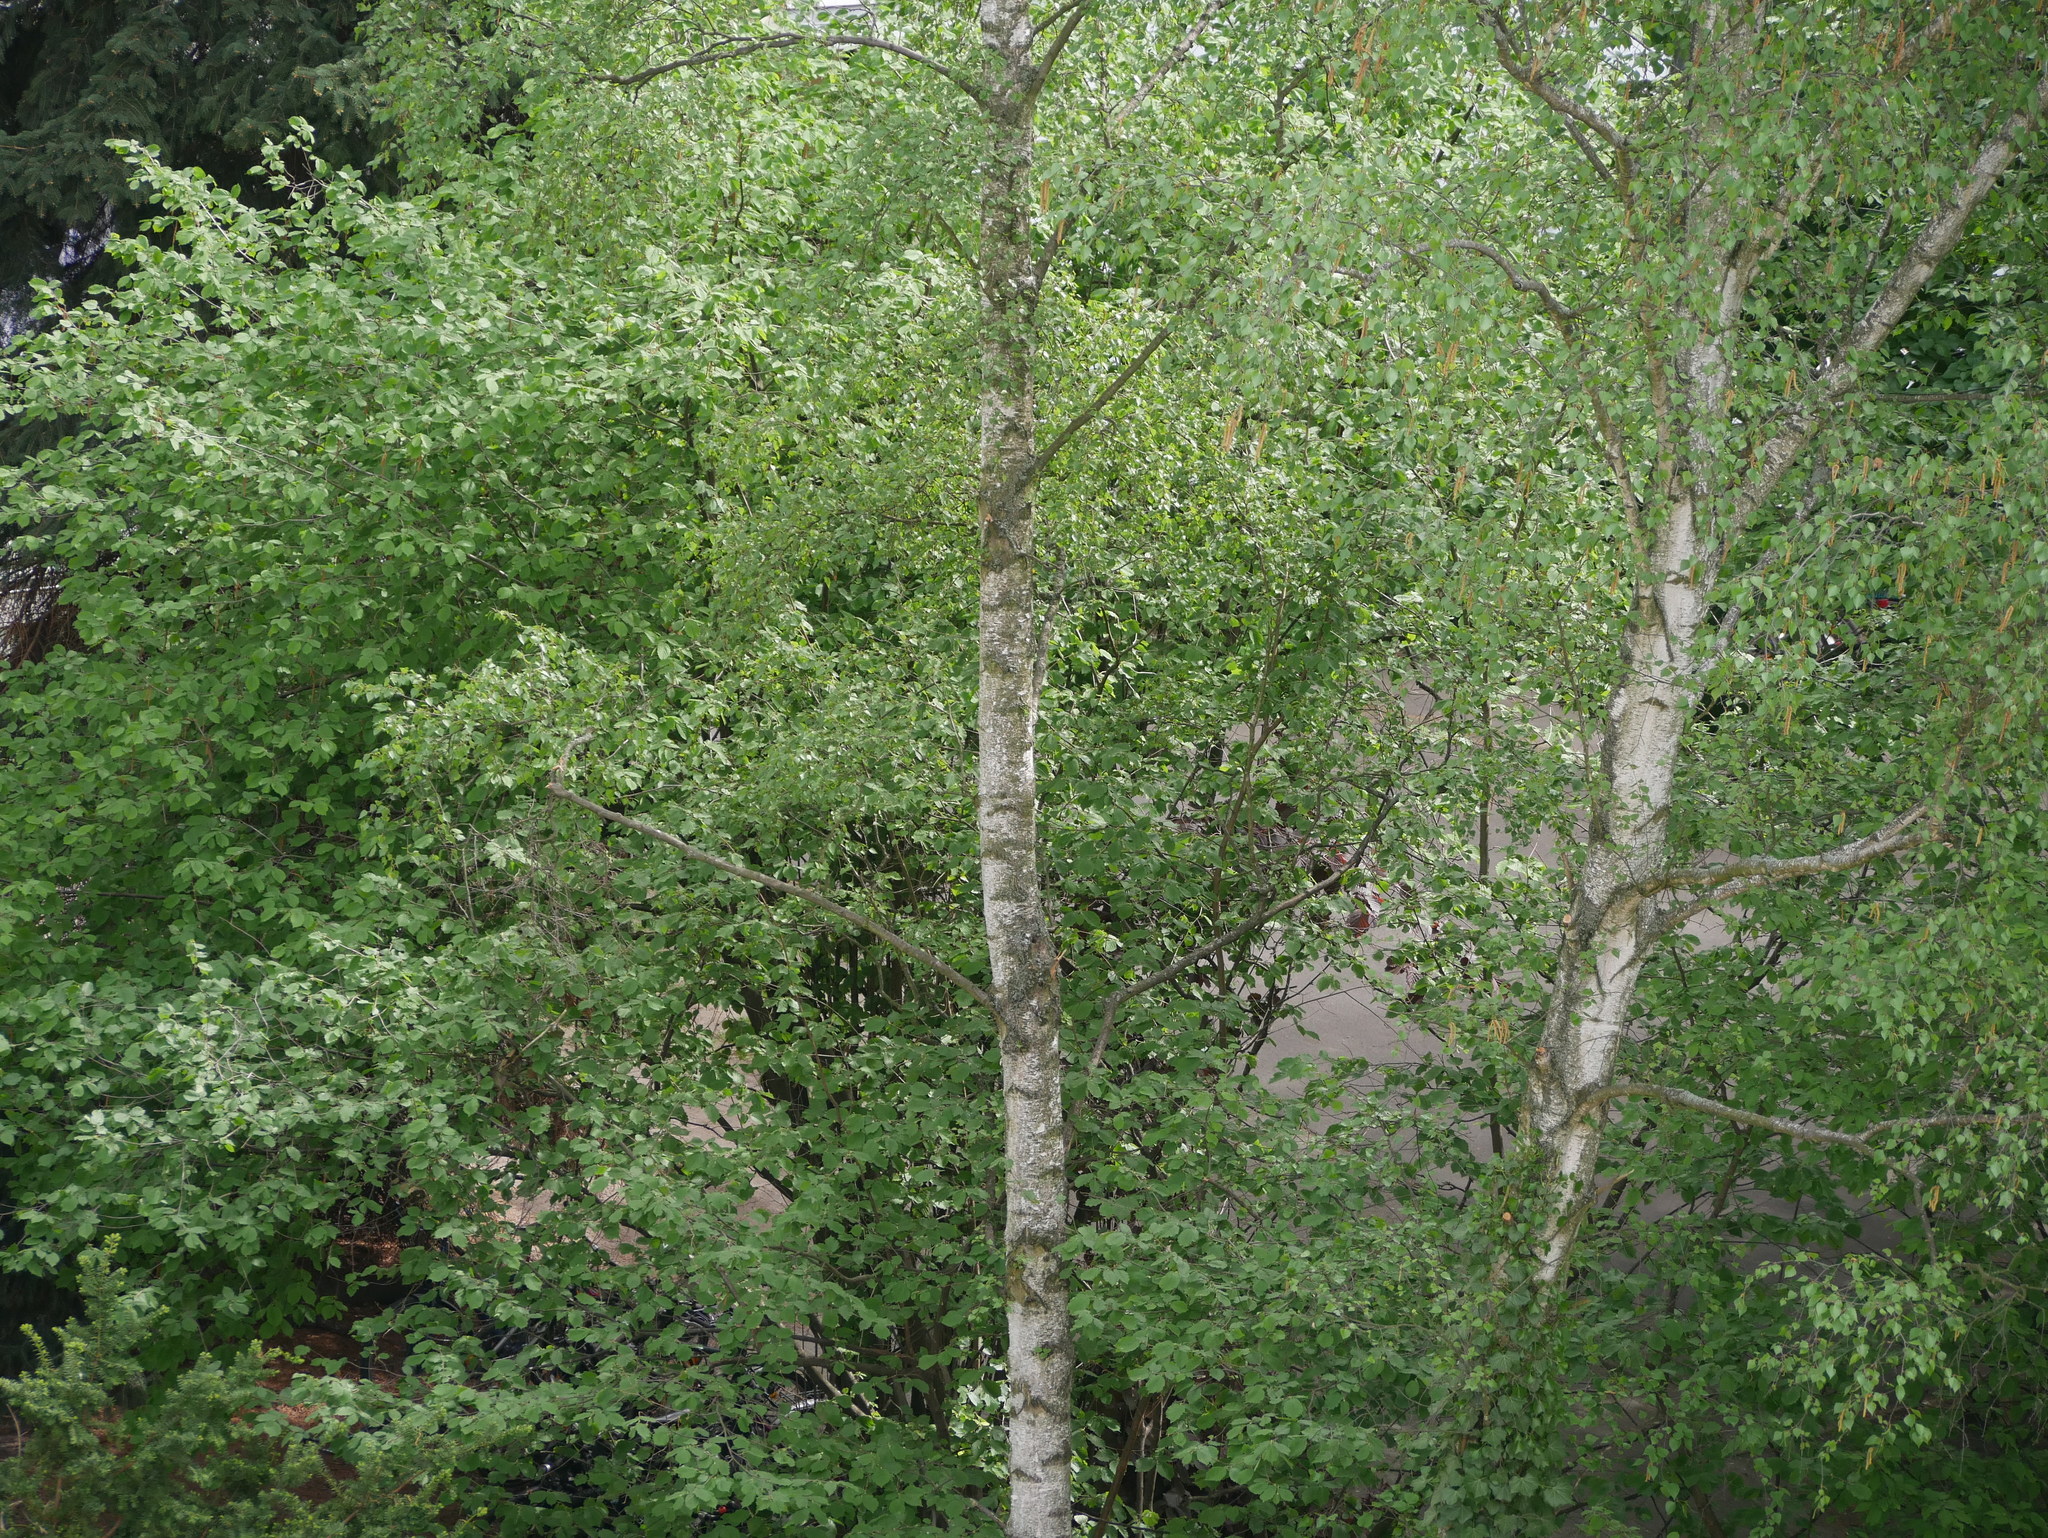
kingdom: Plantae
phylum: Tracheophyta
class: Magnoliopsida
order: Fagales
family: Betulaceae
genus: Betula
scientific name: Betula pendula
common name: Silver birch
